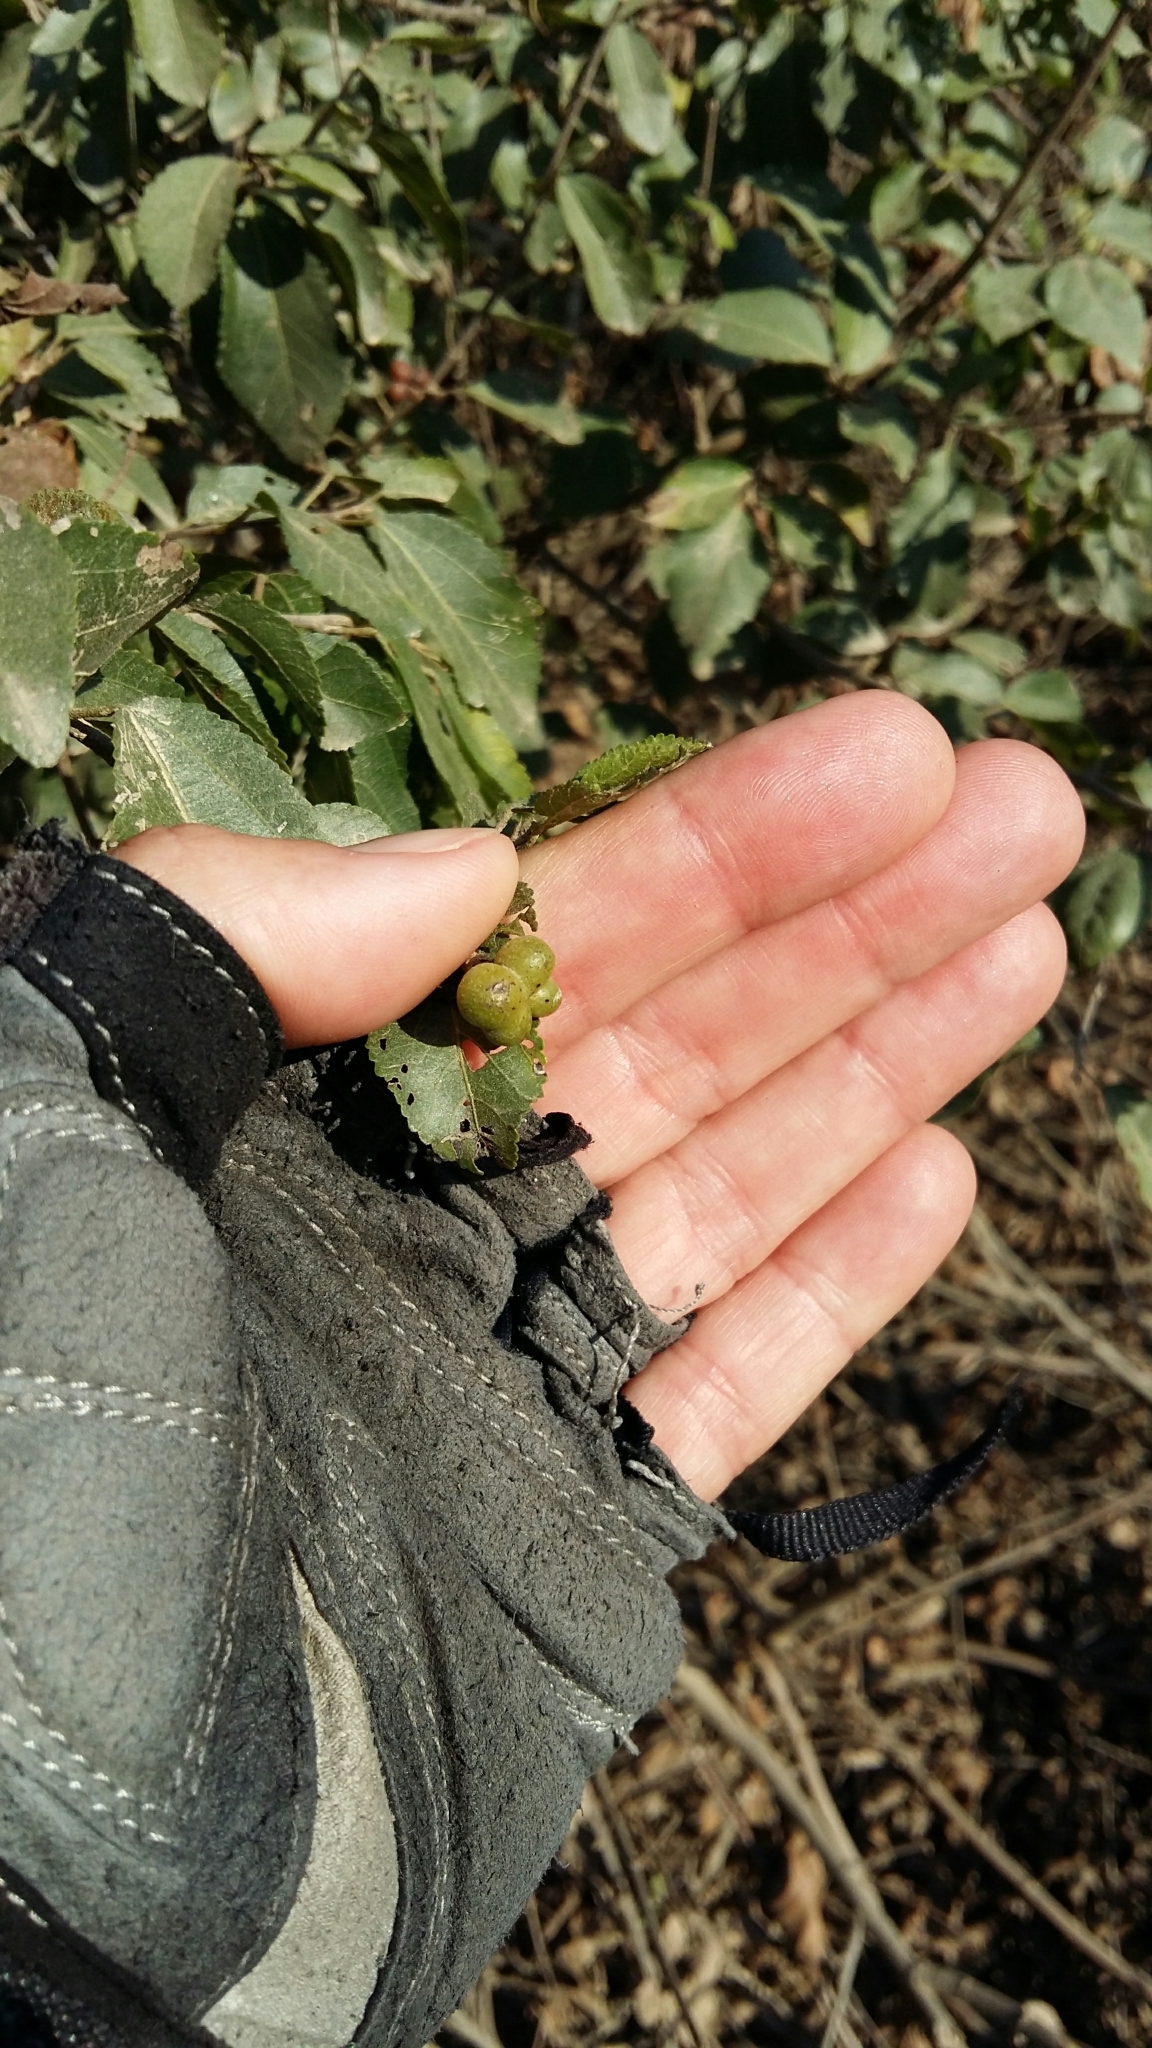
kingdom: Plantae
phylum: Tracheophyta
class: Magnoliopsida
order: Malvales
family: Malvaceae
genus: Grewia
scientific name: Grewia occidentalis
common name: Crossberry
